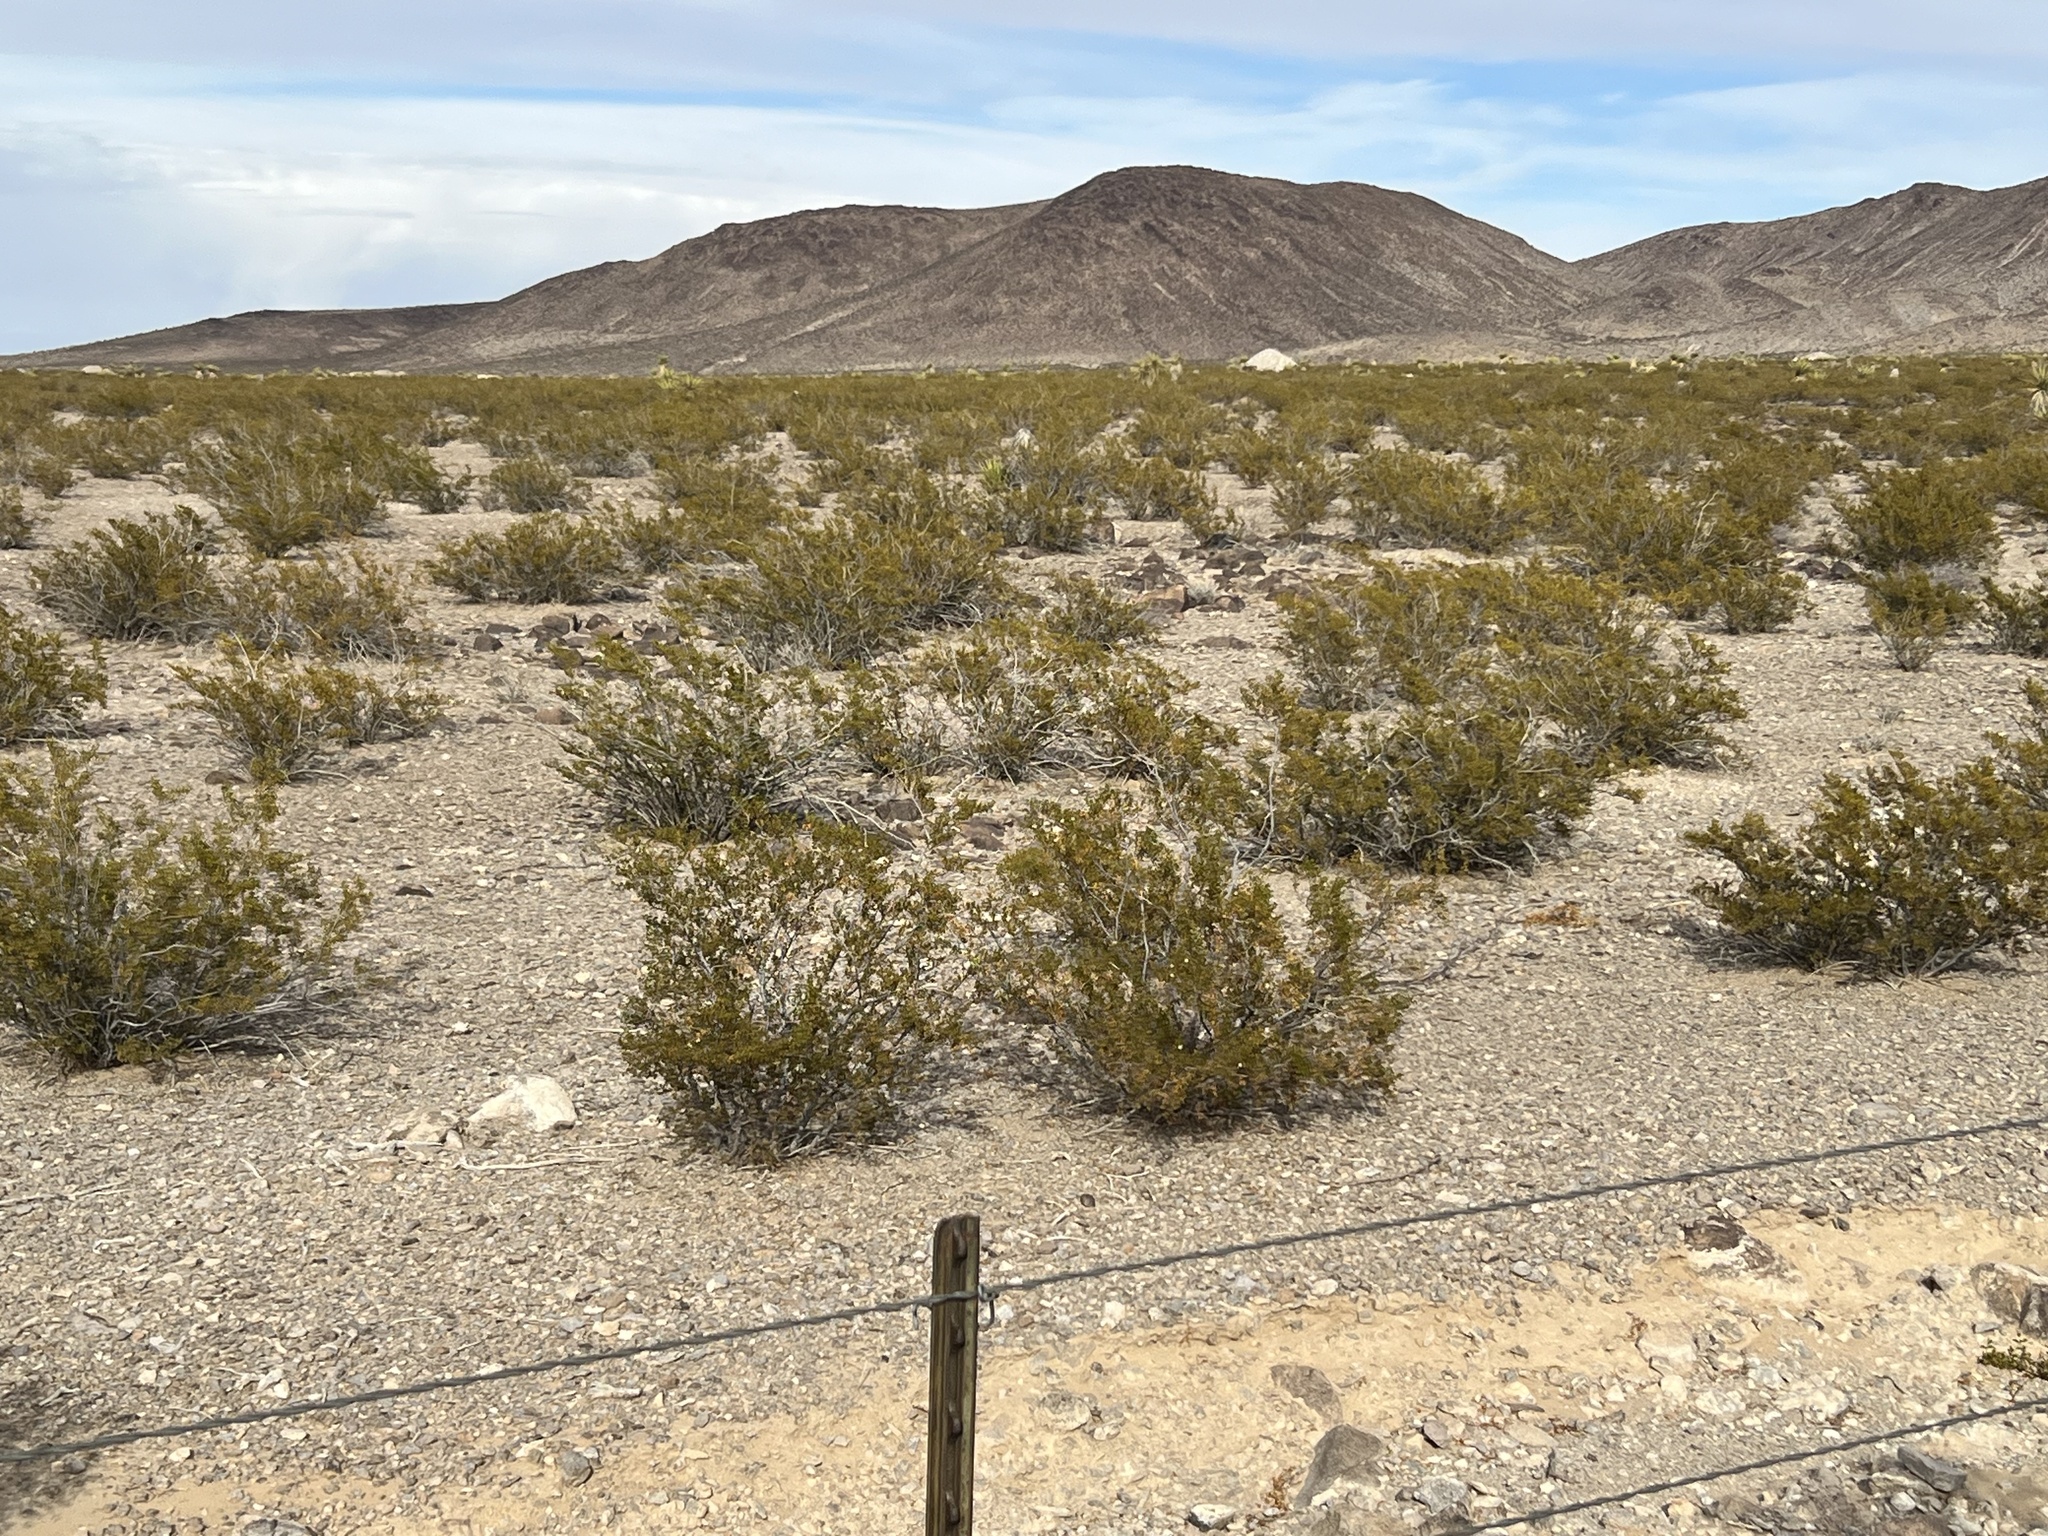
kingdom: Plantae
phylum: Tracheophyta
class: Magnoliopsida
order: Zygophyllales
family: Zygophyllaceae
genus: Larrea
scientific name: Larrea tridentata
